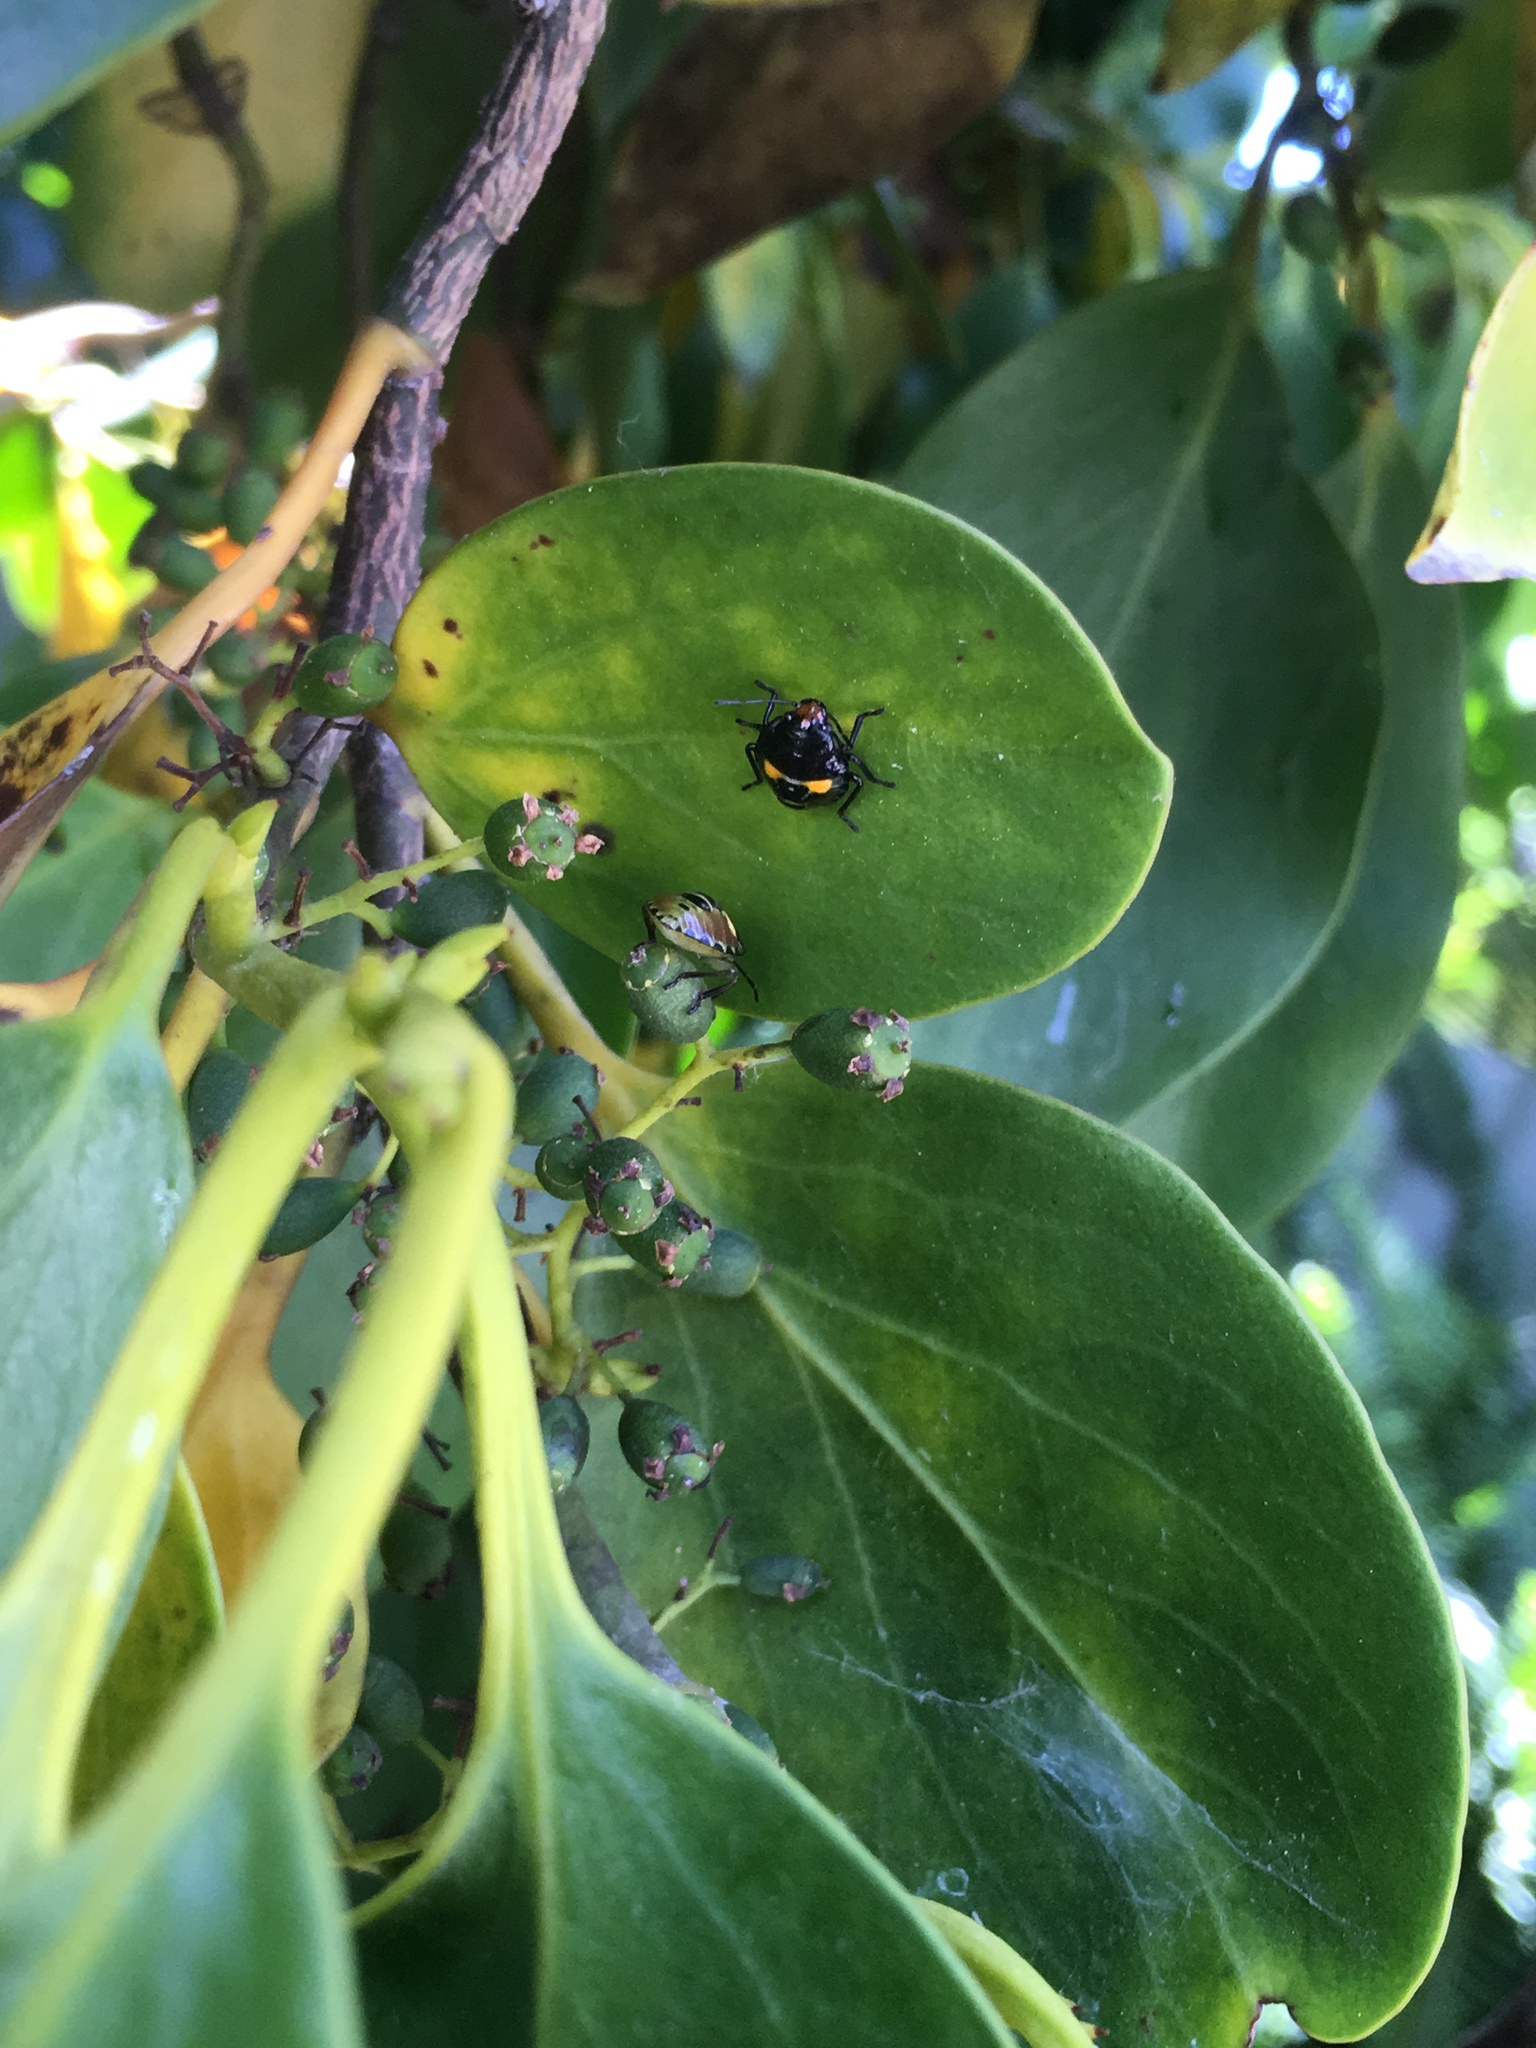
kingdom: Animalia
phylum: Arthropoda
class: Insecta
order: Hemiptera
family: Pentatomidae
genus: Glaucias
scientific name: Glaucias amyota
